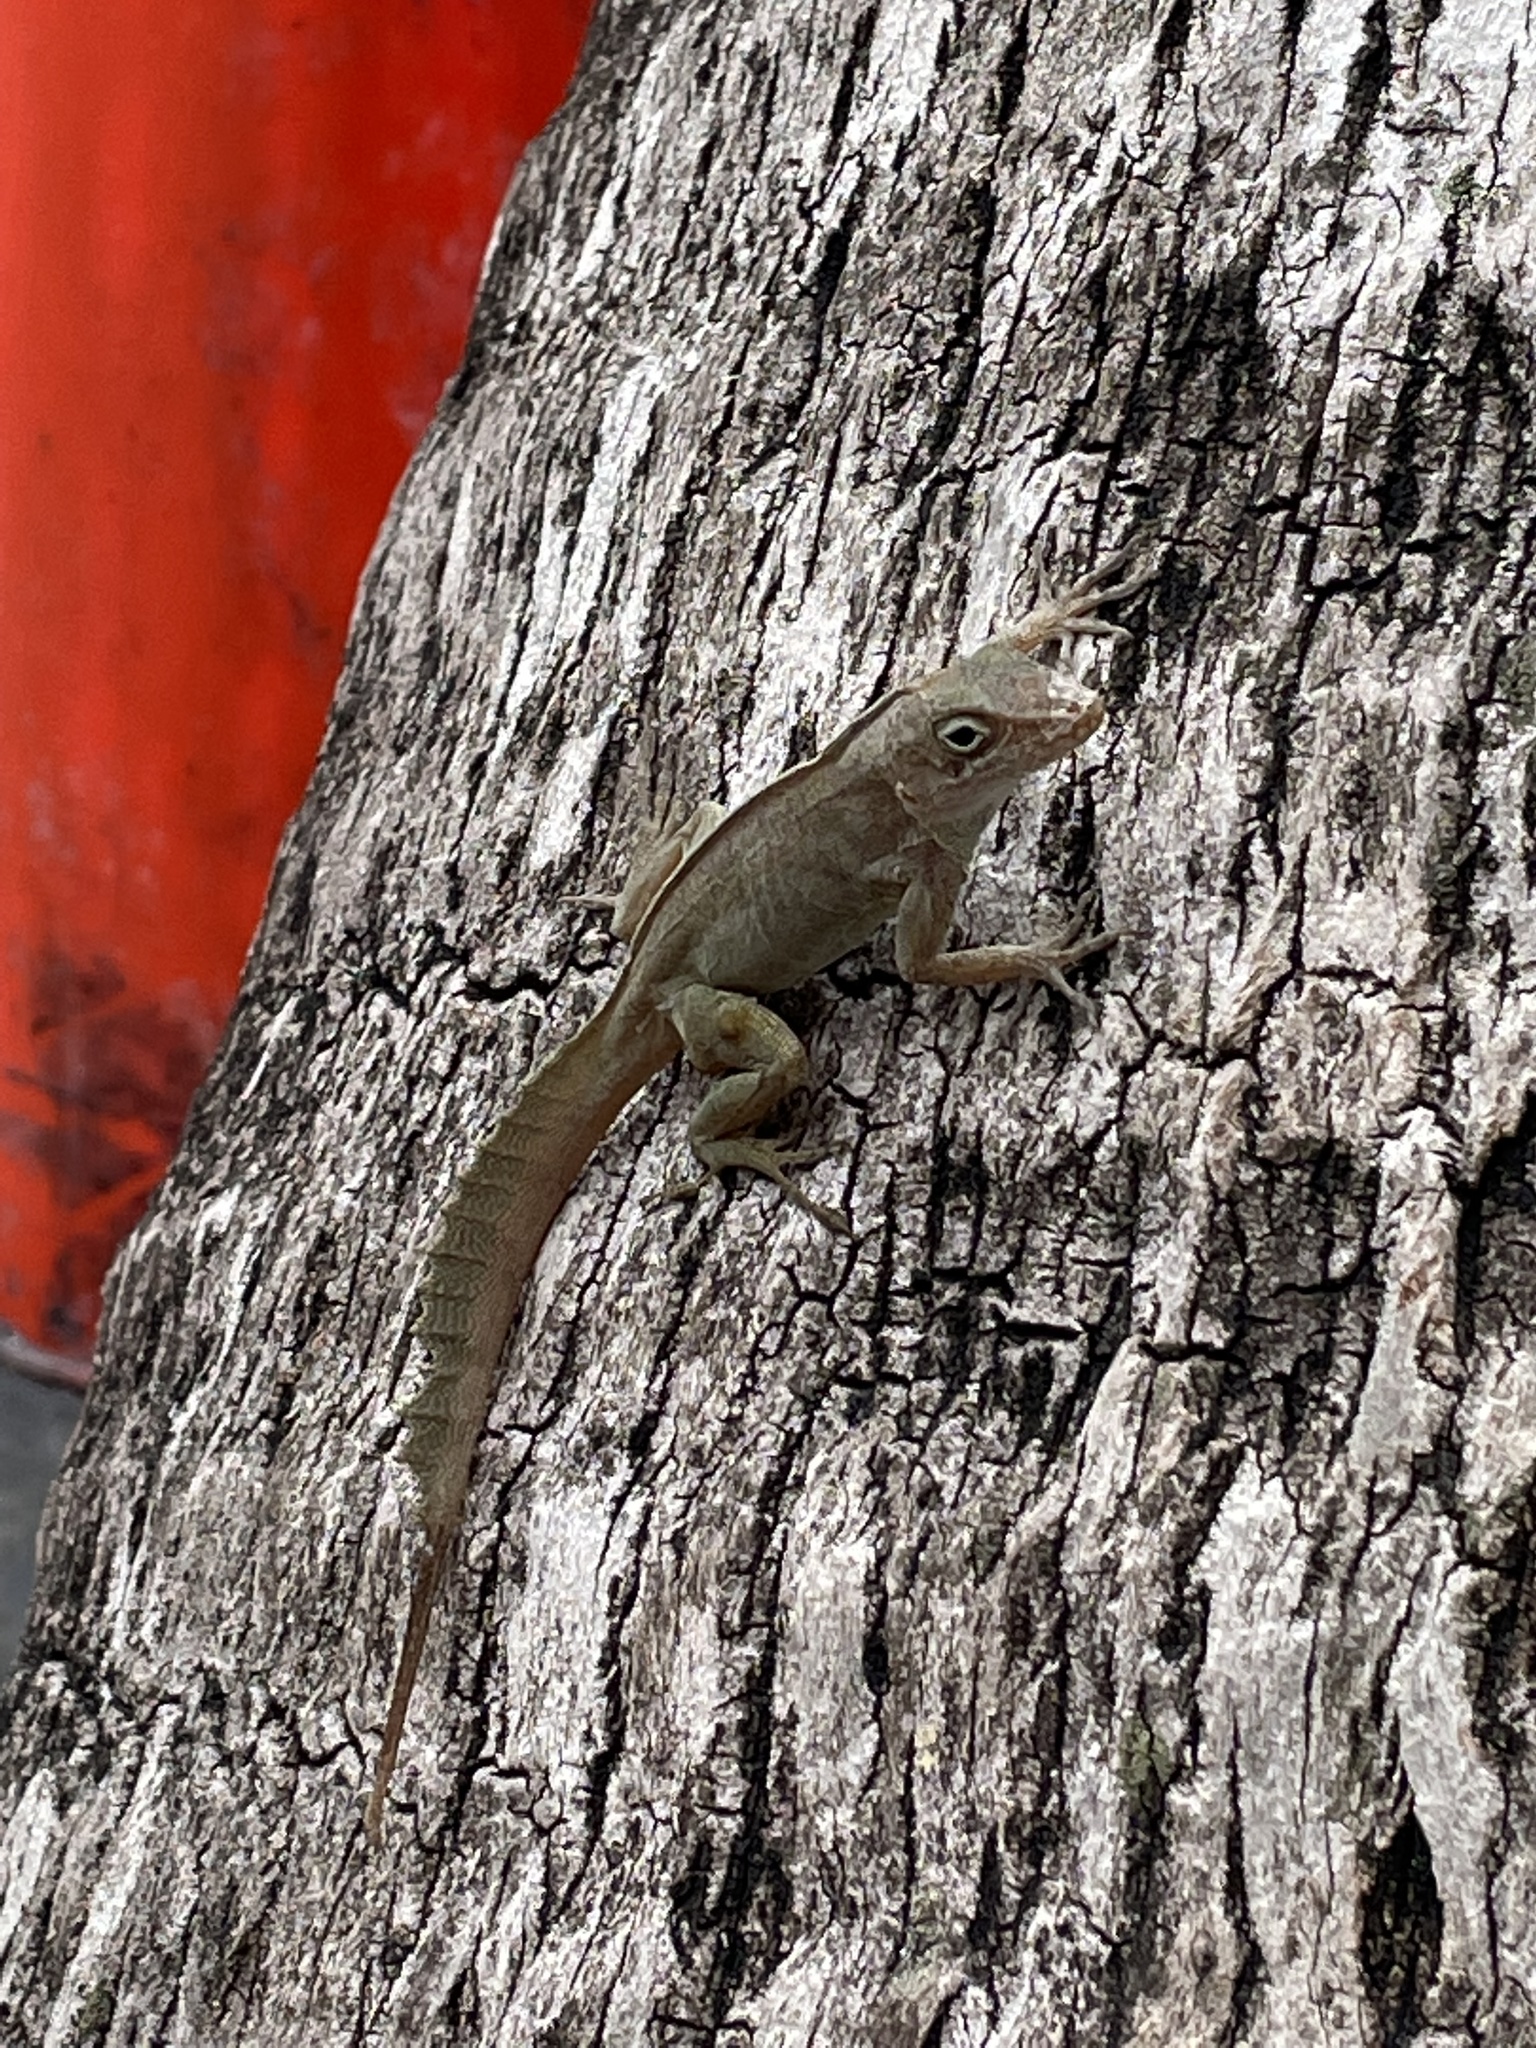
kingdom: Animalia
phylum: Chordata
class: Squamata
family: Dactyloidae
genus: Anolis
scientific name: Anolis cristatellus
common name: Crested anole
